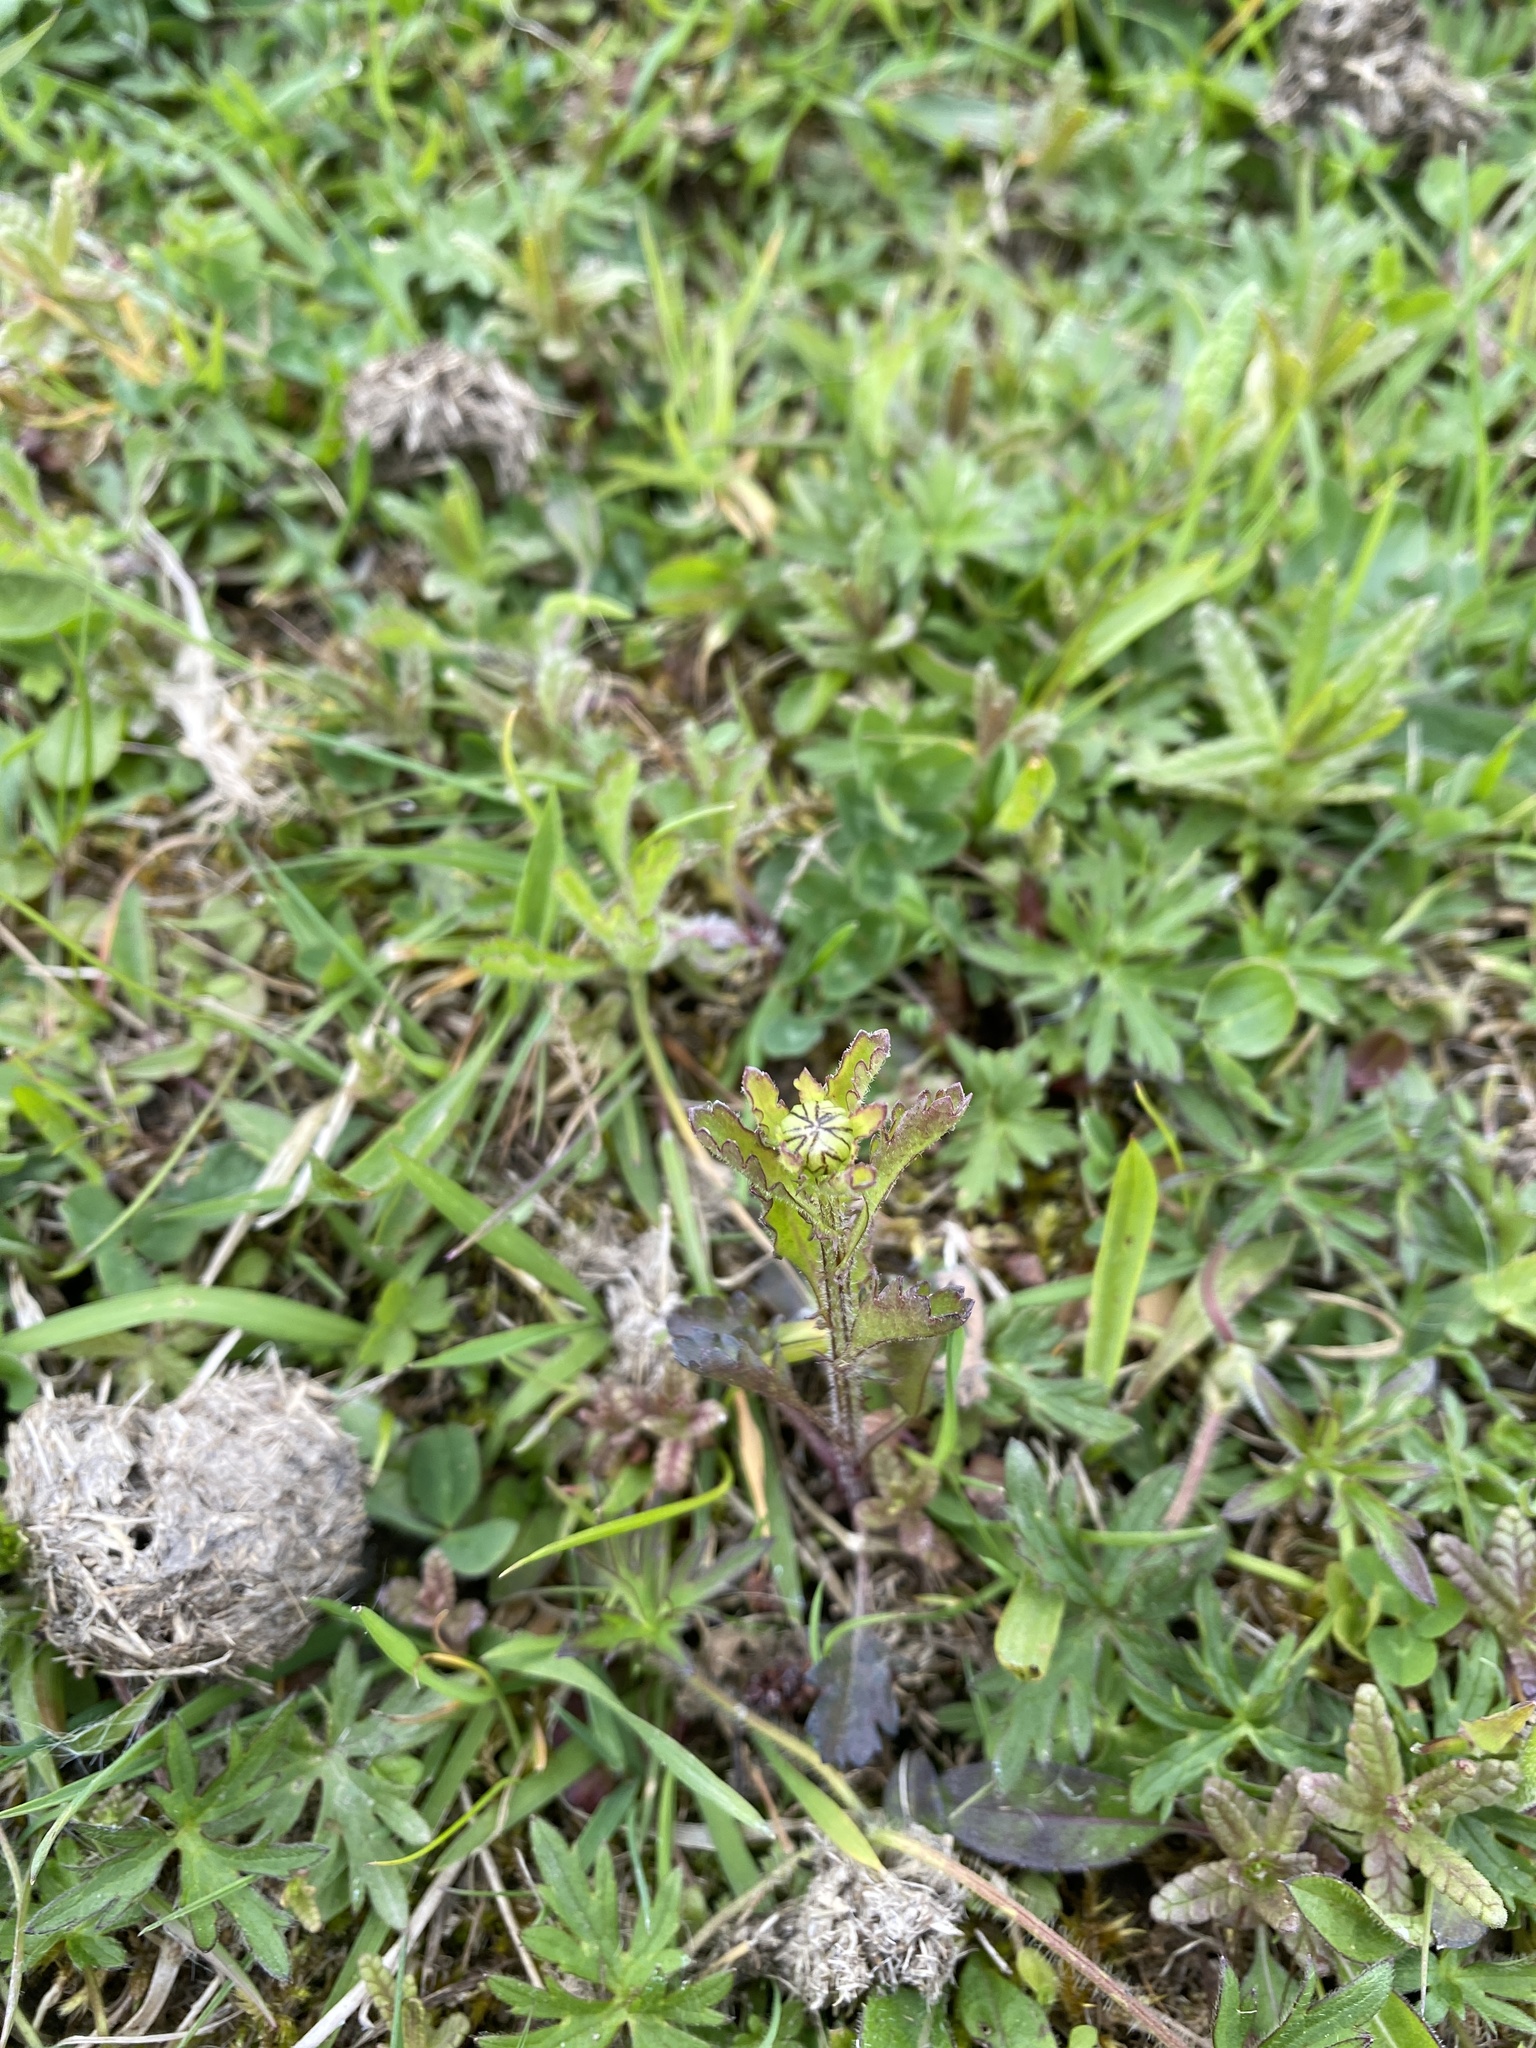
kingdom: Plantae
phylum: Tracheophyta
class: Magnoliopsida
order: Asterales
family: Asteraceae
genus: Leucanthemum
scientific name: Leucanthemum vulgare
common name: Oxeye daisy
